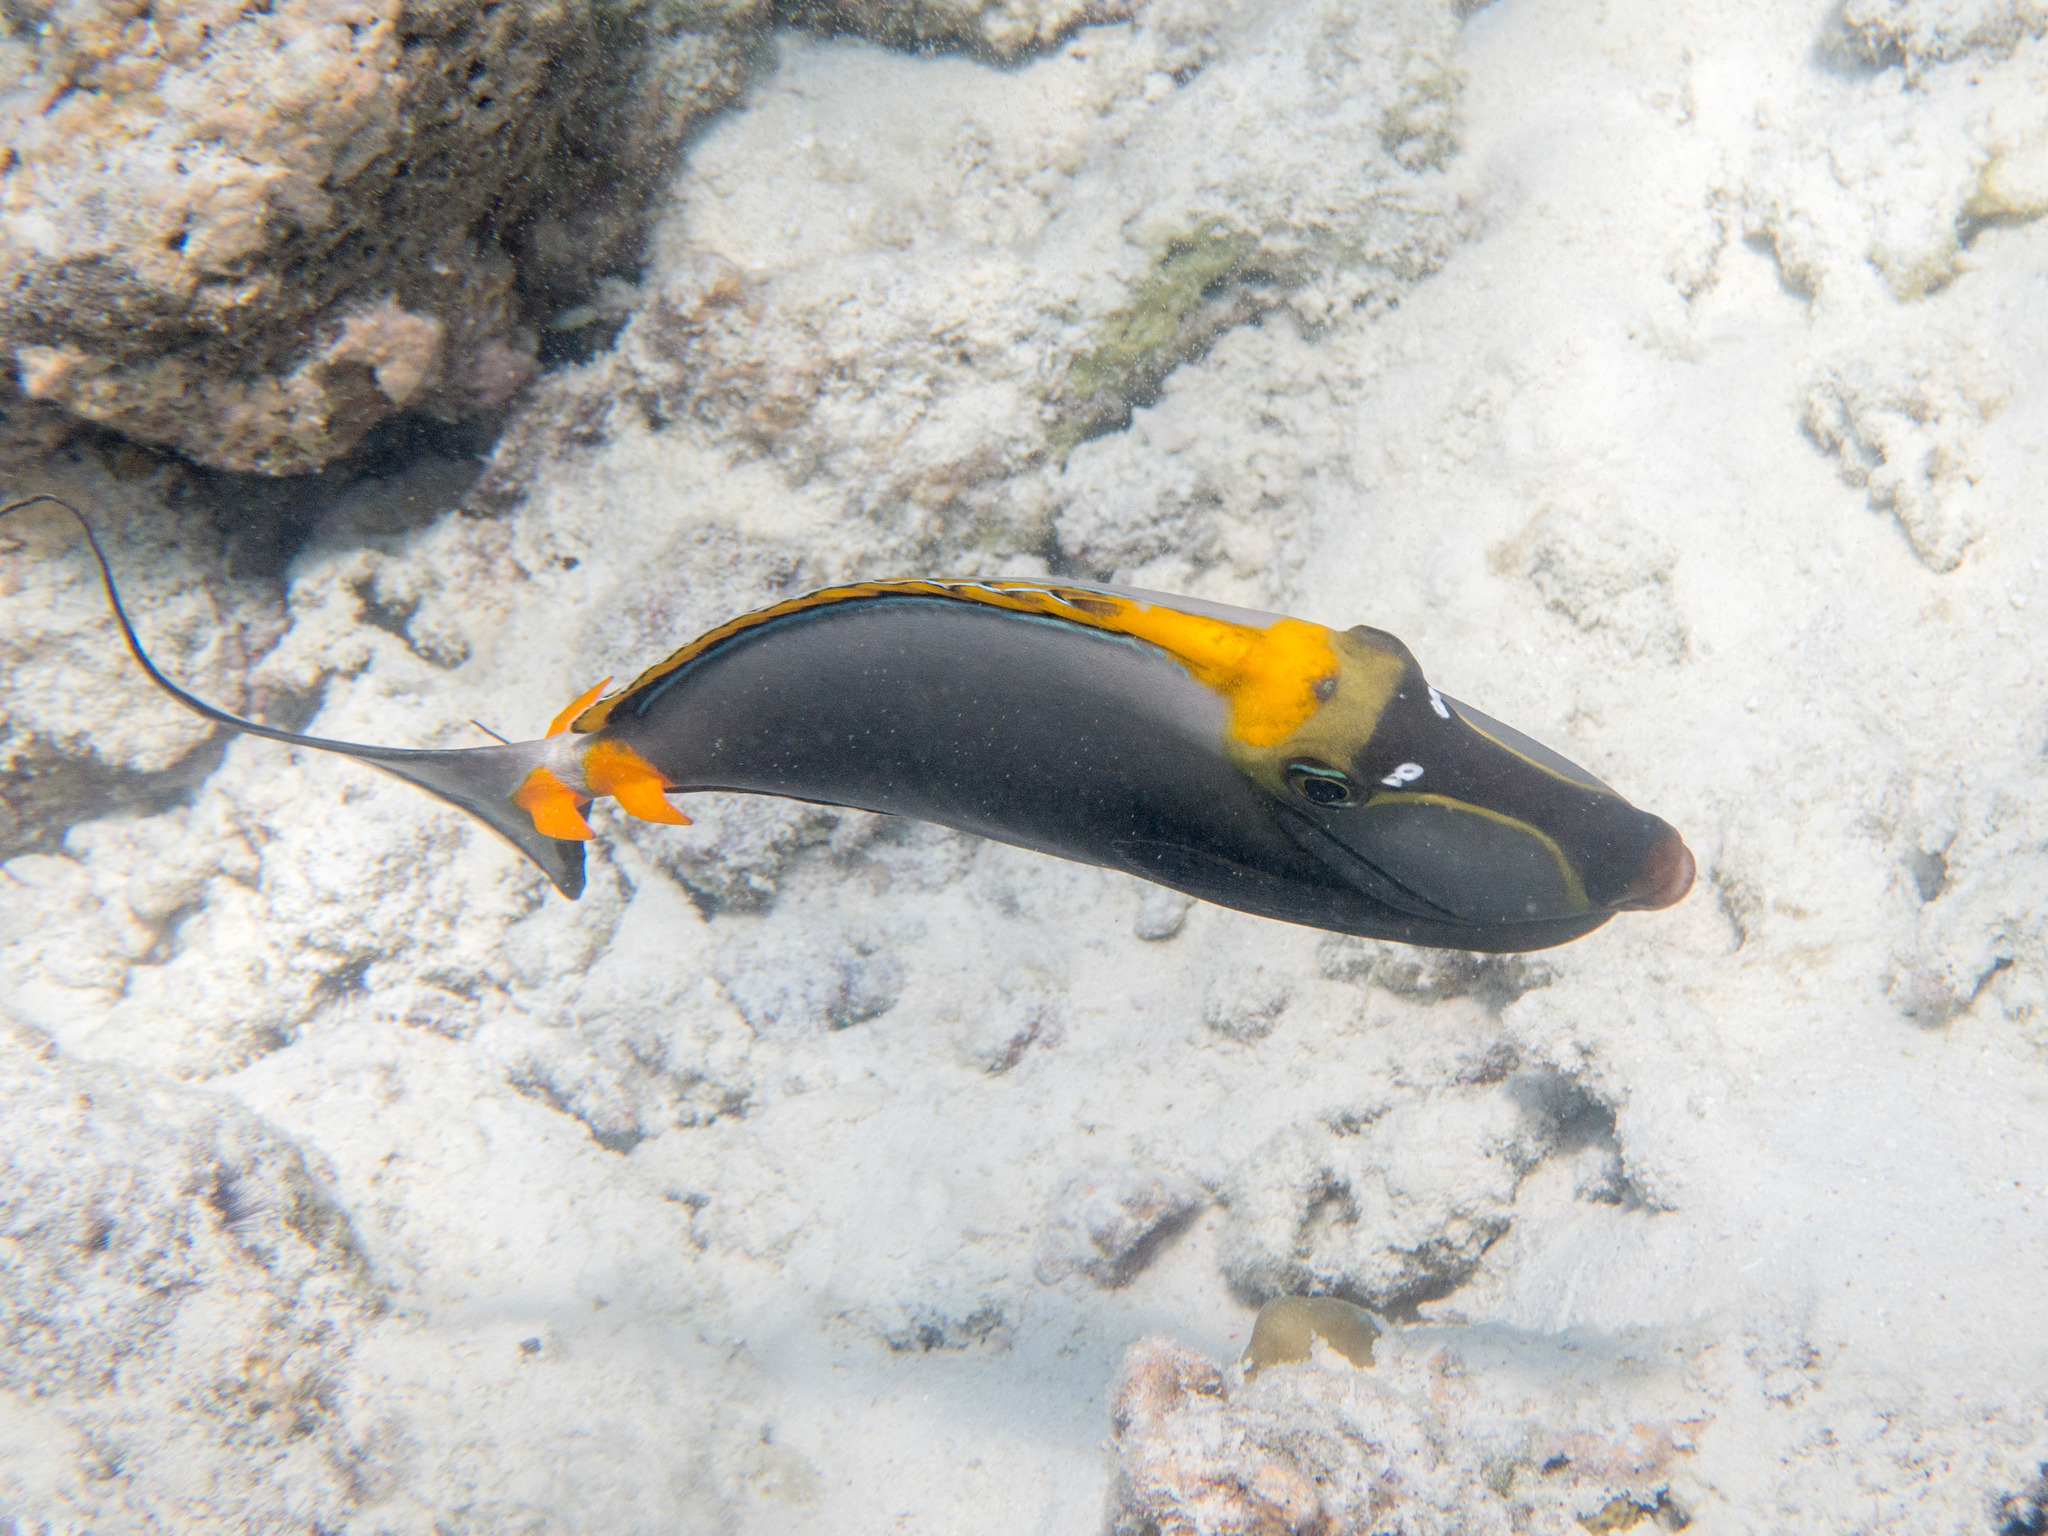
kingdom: Animalia
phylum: Chordata
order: Perciformes
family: Acanthuridae
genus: Naso
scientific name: Naso elegans
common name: Orangespine unicornfish
